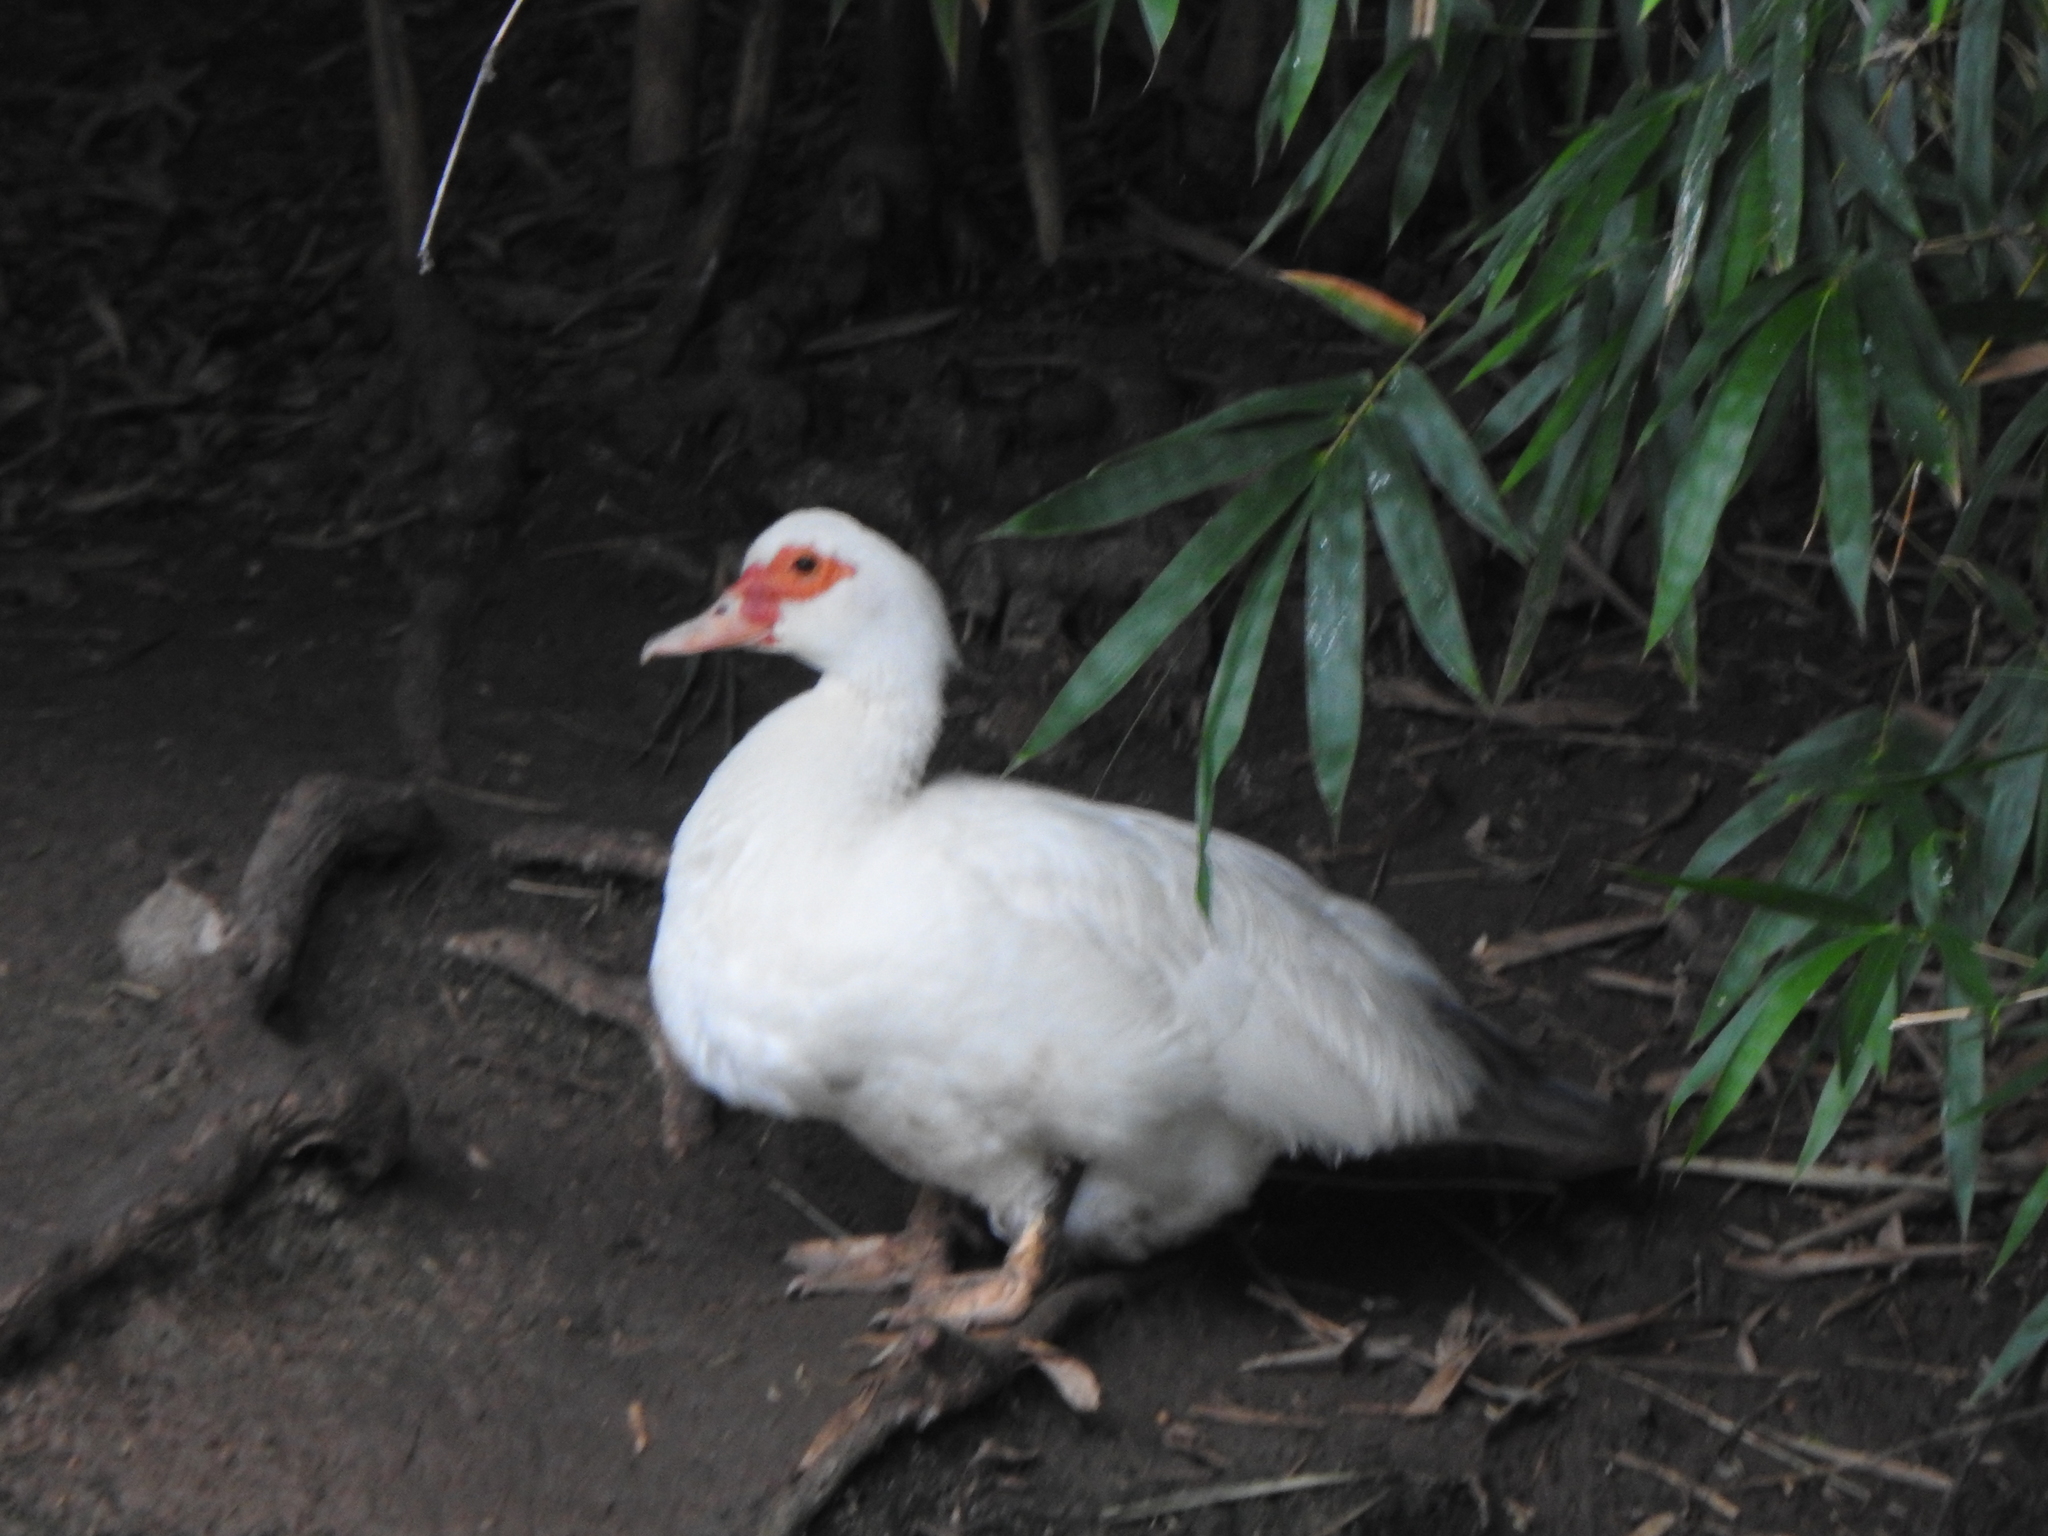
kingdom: Animalia
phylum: Chordata
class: Aves
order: Anseriformes
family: Anatidae
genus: Cairina
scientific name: Cairina moschata
